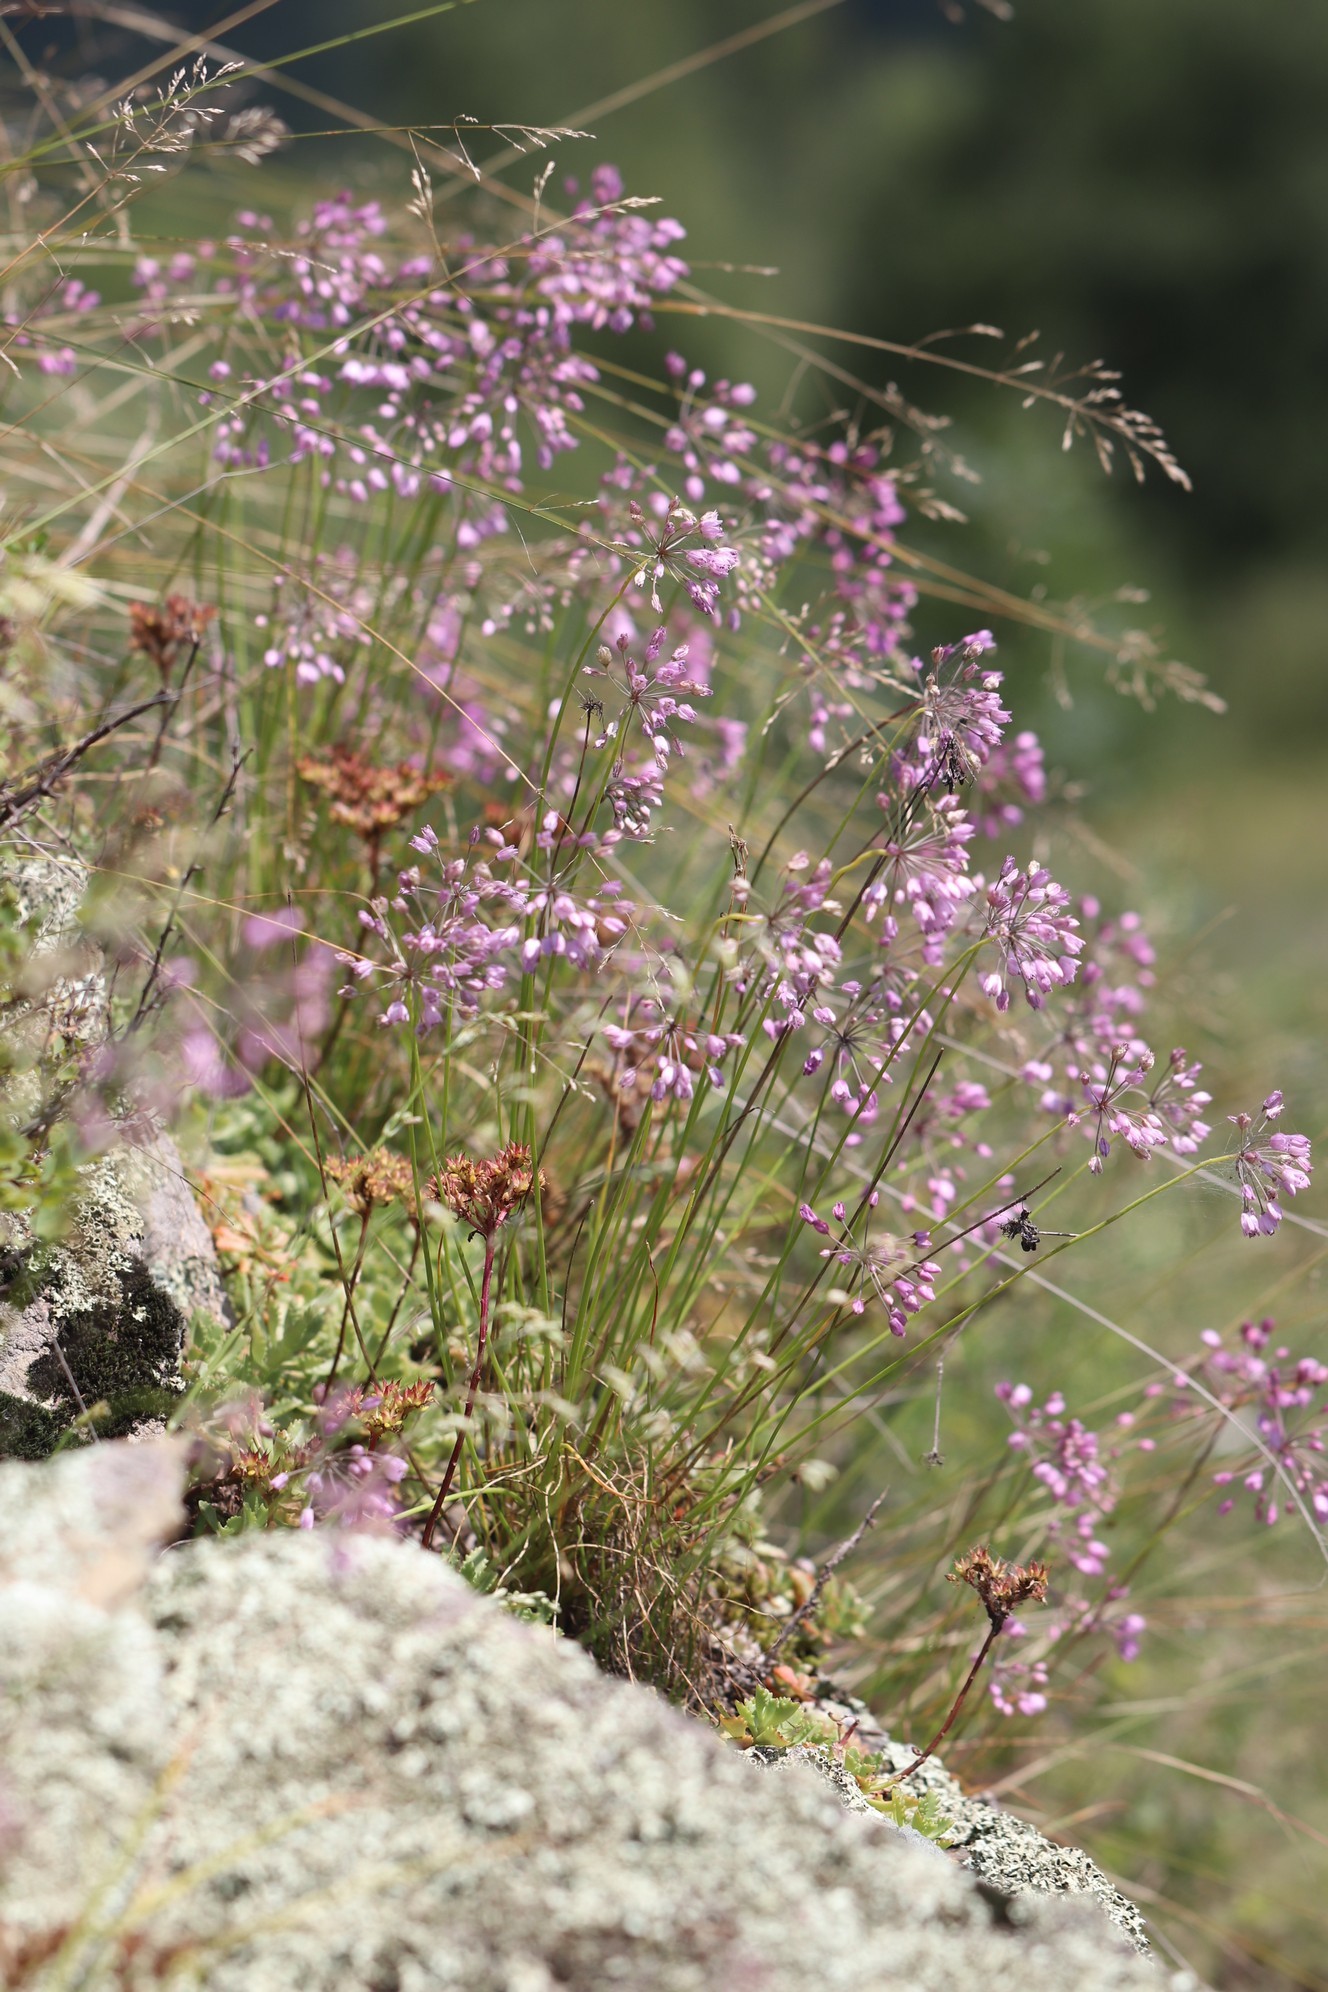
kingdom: Plantae
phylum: Tracheophyta
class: Liliopsida
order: Asparagales
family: Amaryllidaceae
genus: Allium
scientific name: Allium rubens
